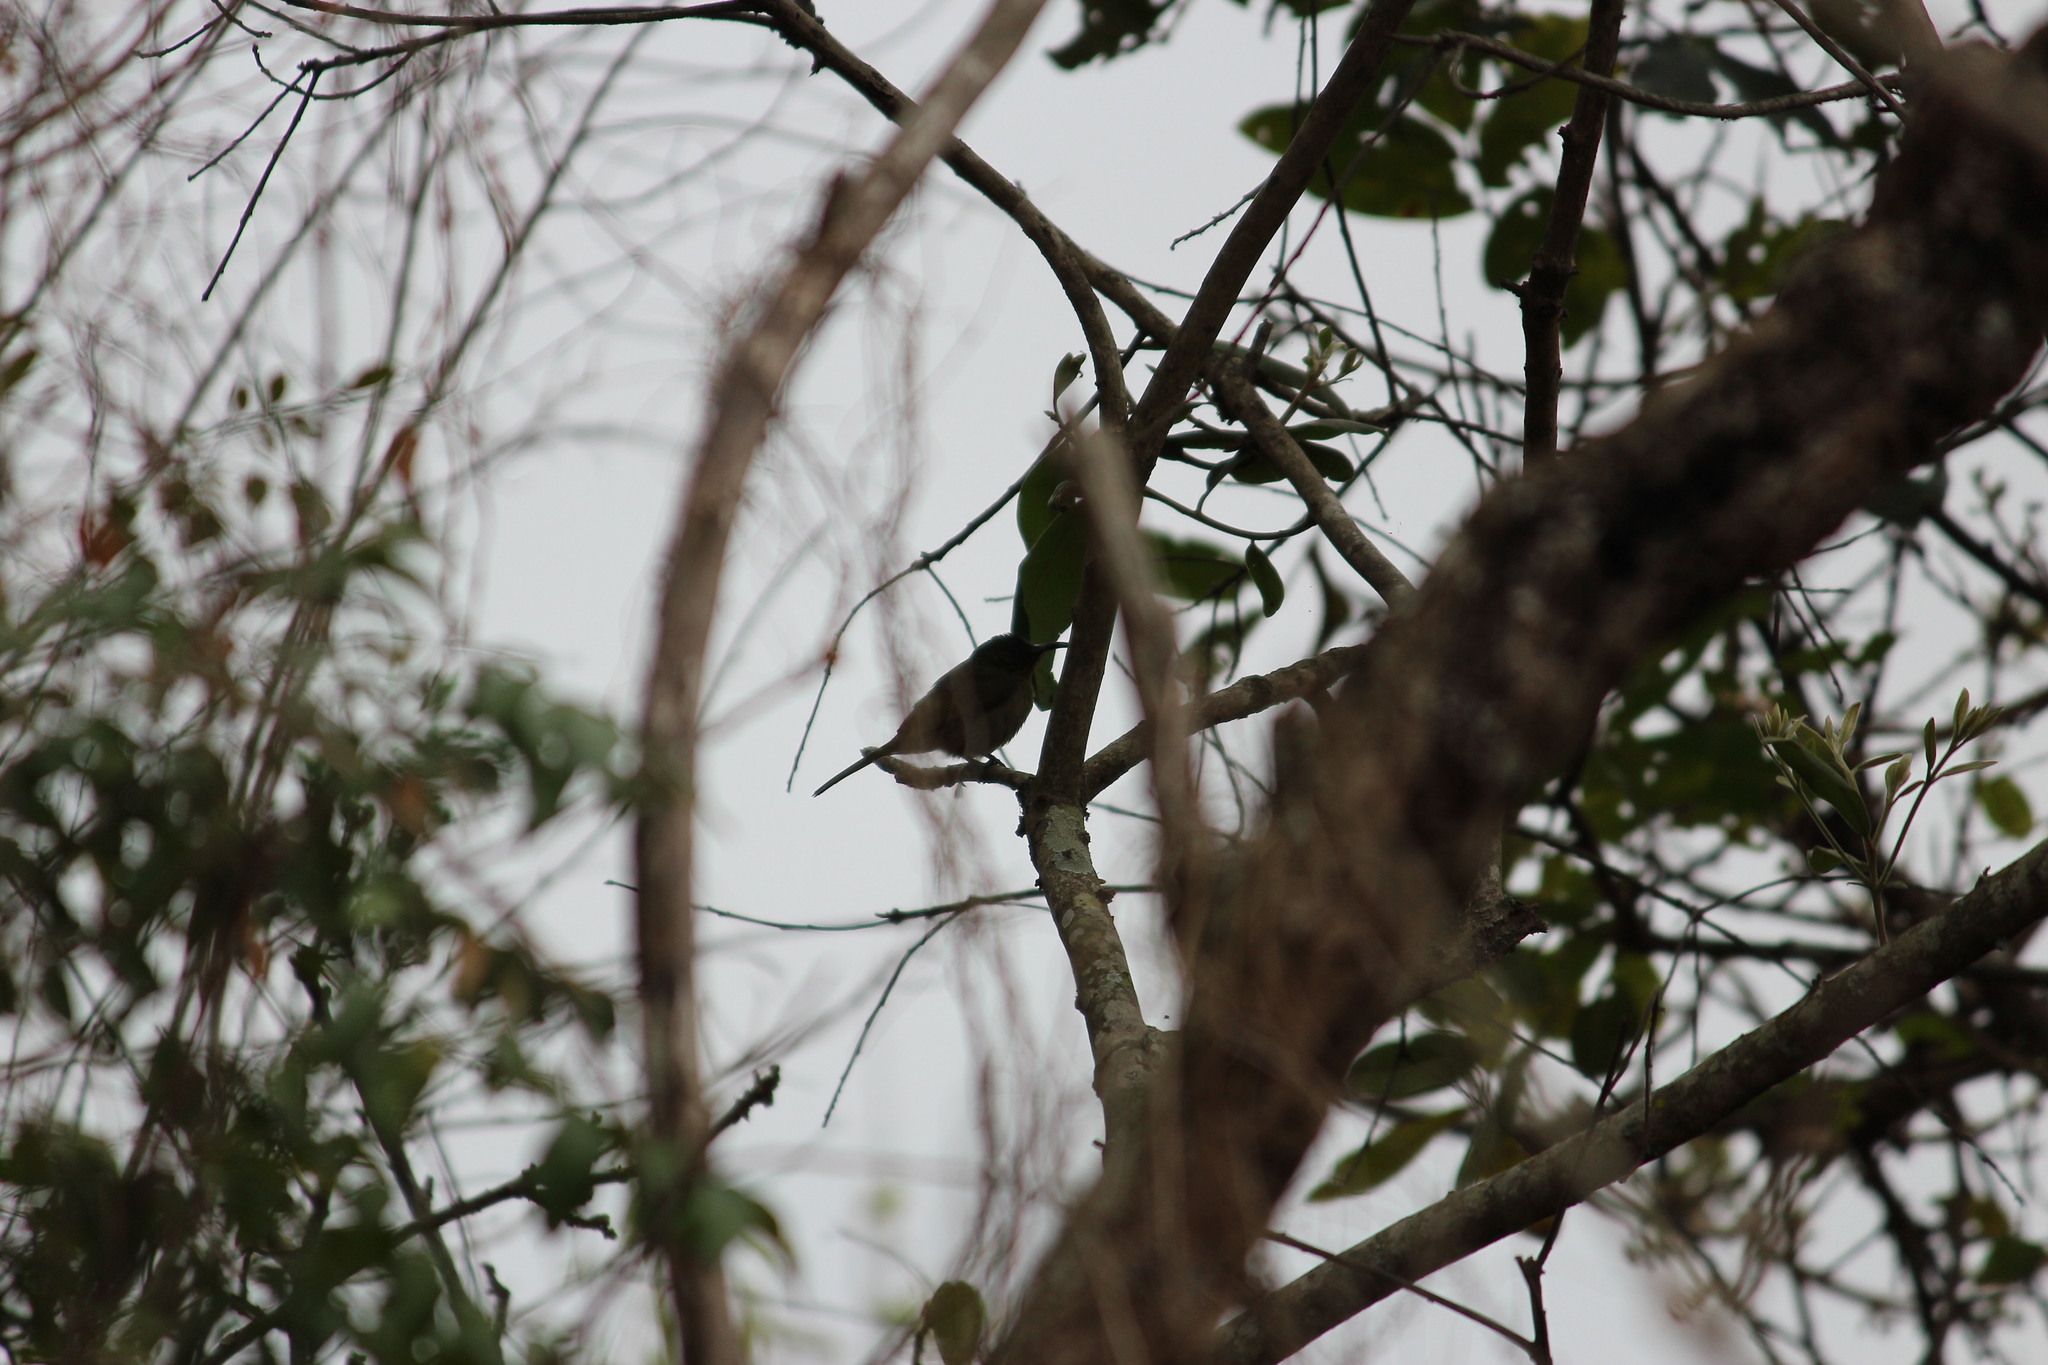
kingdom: Animalia
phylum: Chordata
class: Aves
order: Passeriformes
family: Nectariniidae
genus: Cyanomitra
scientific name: Cyanomitra olivacea
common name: Olive sunbird
